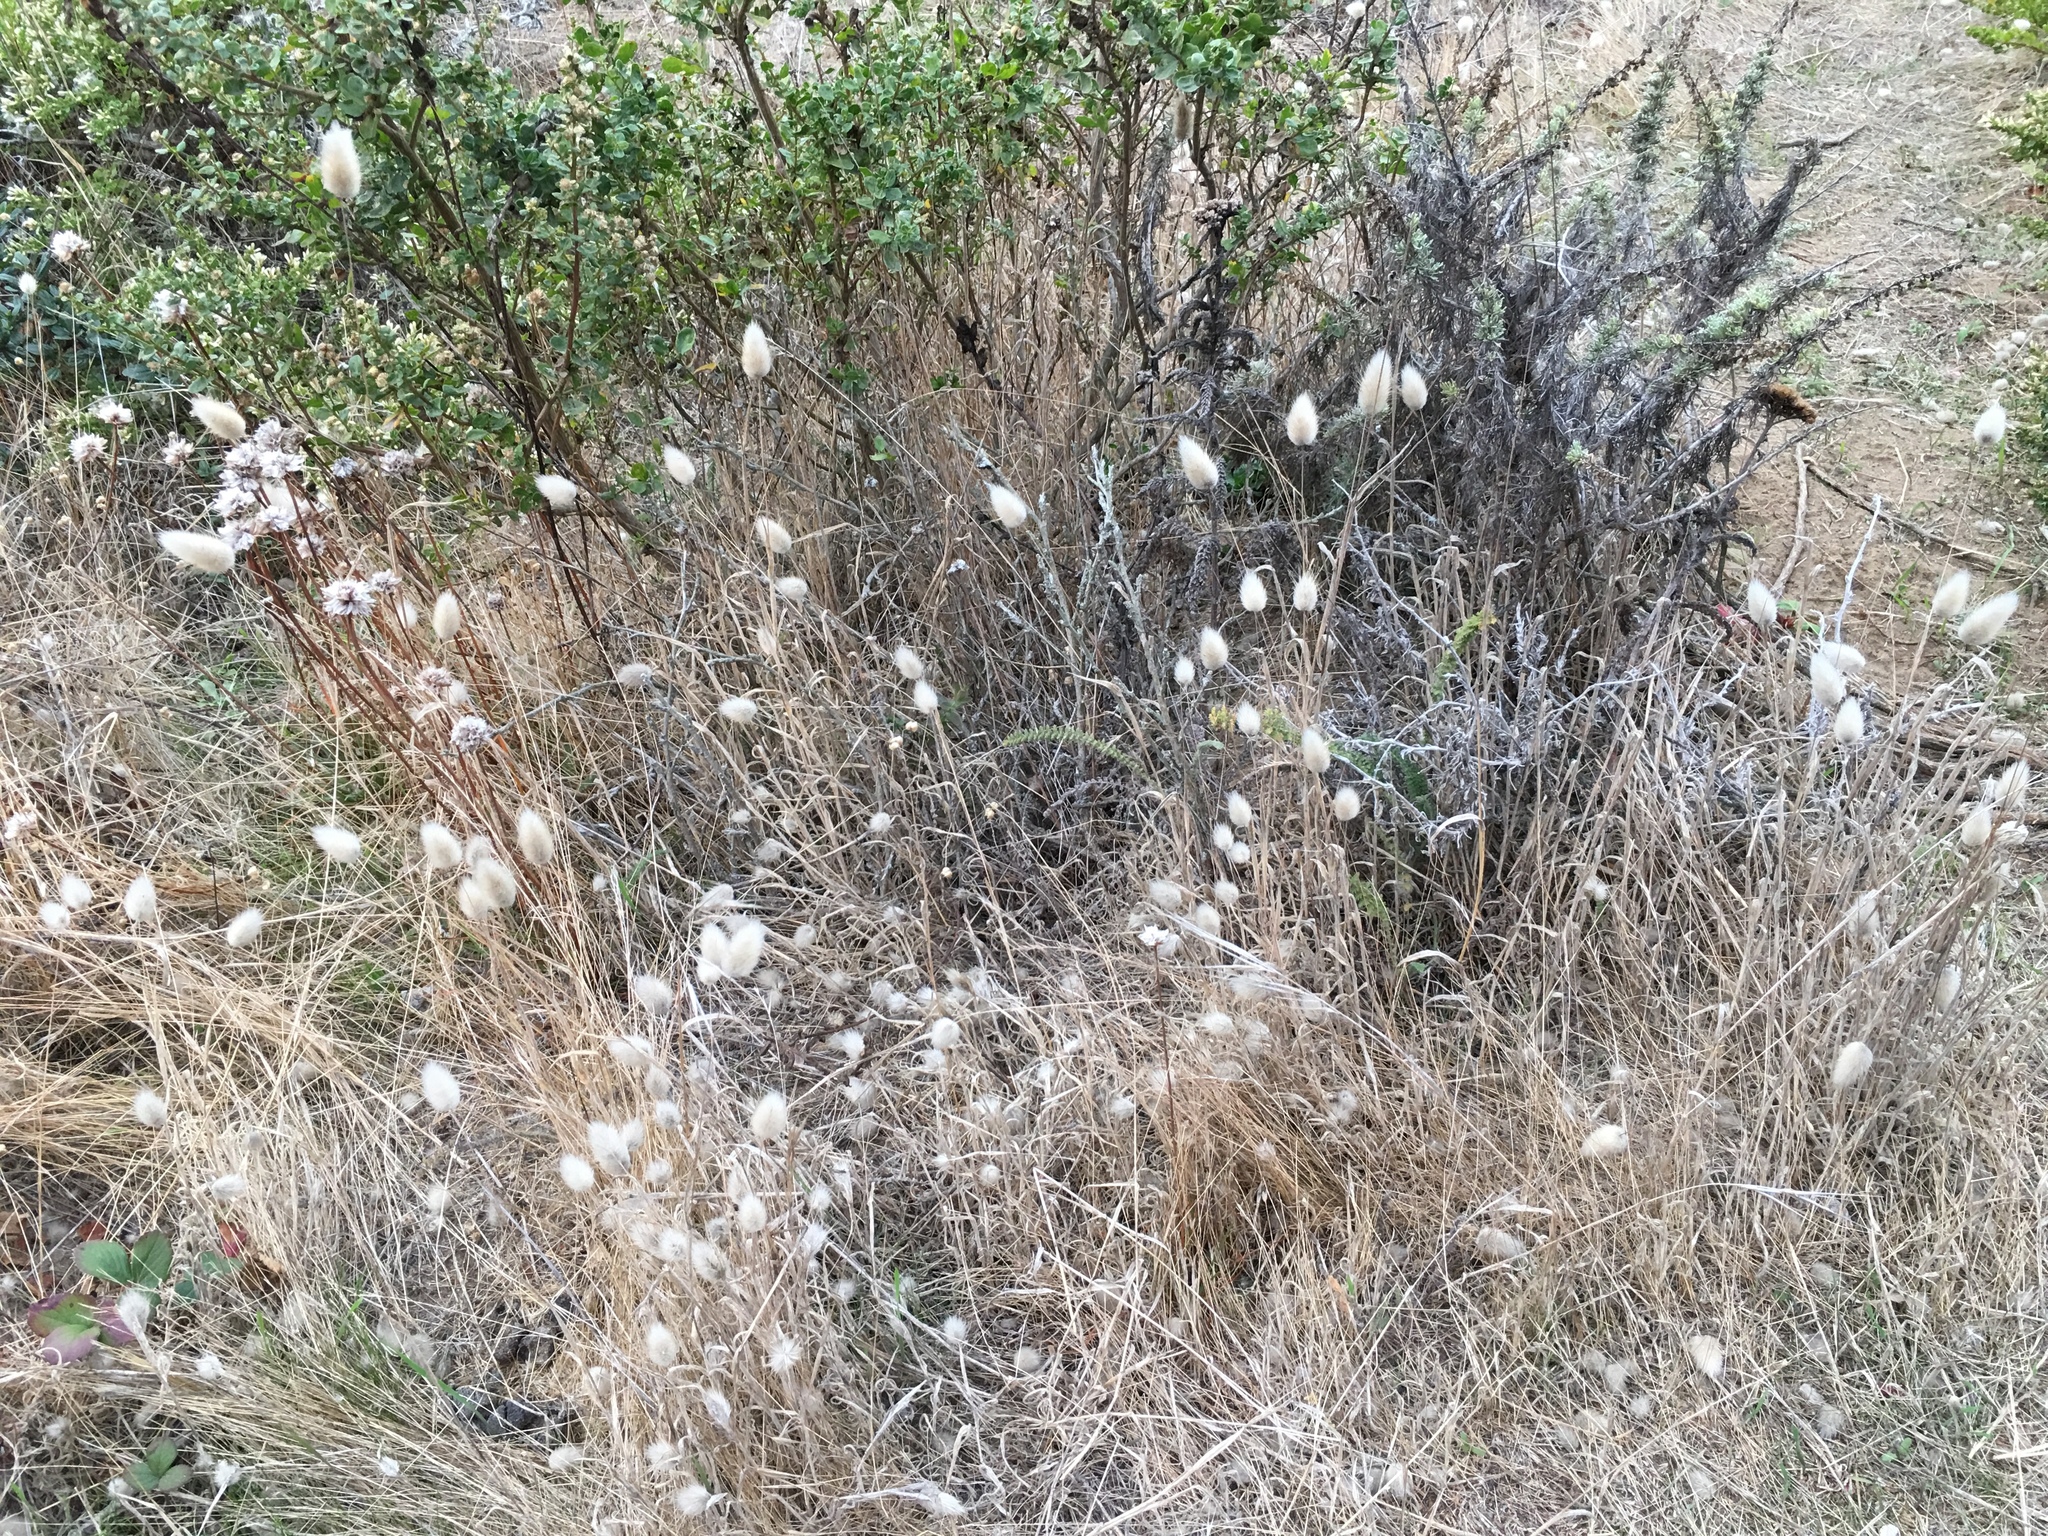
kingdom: Plantae
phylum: Tracheophyta
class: Liliopsida
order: Poales
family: Poaceae
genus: Lagurus
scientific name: Lagurus ovatus
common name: Hare's-tail
